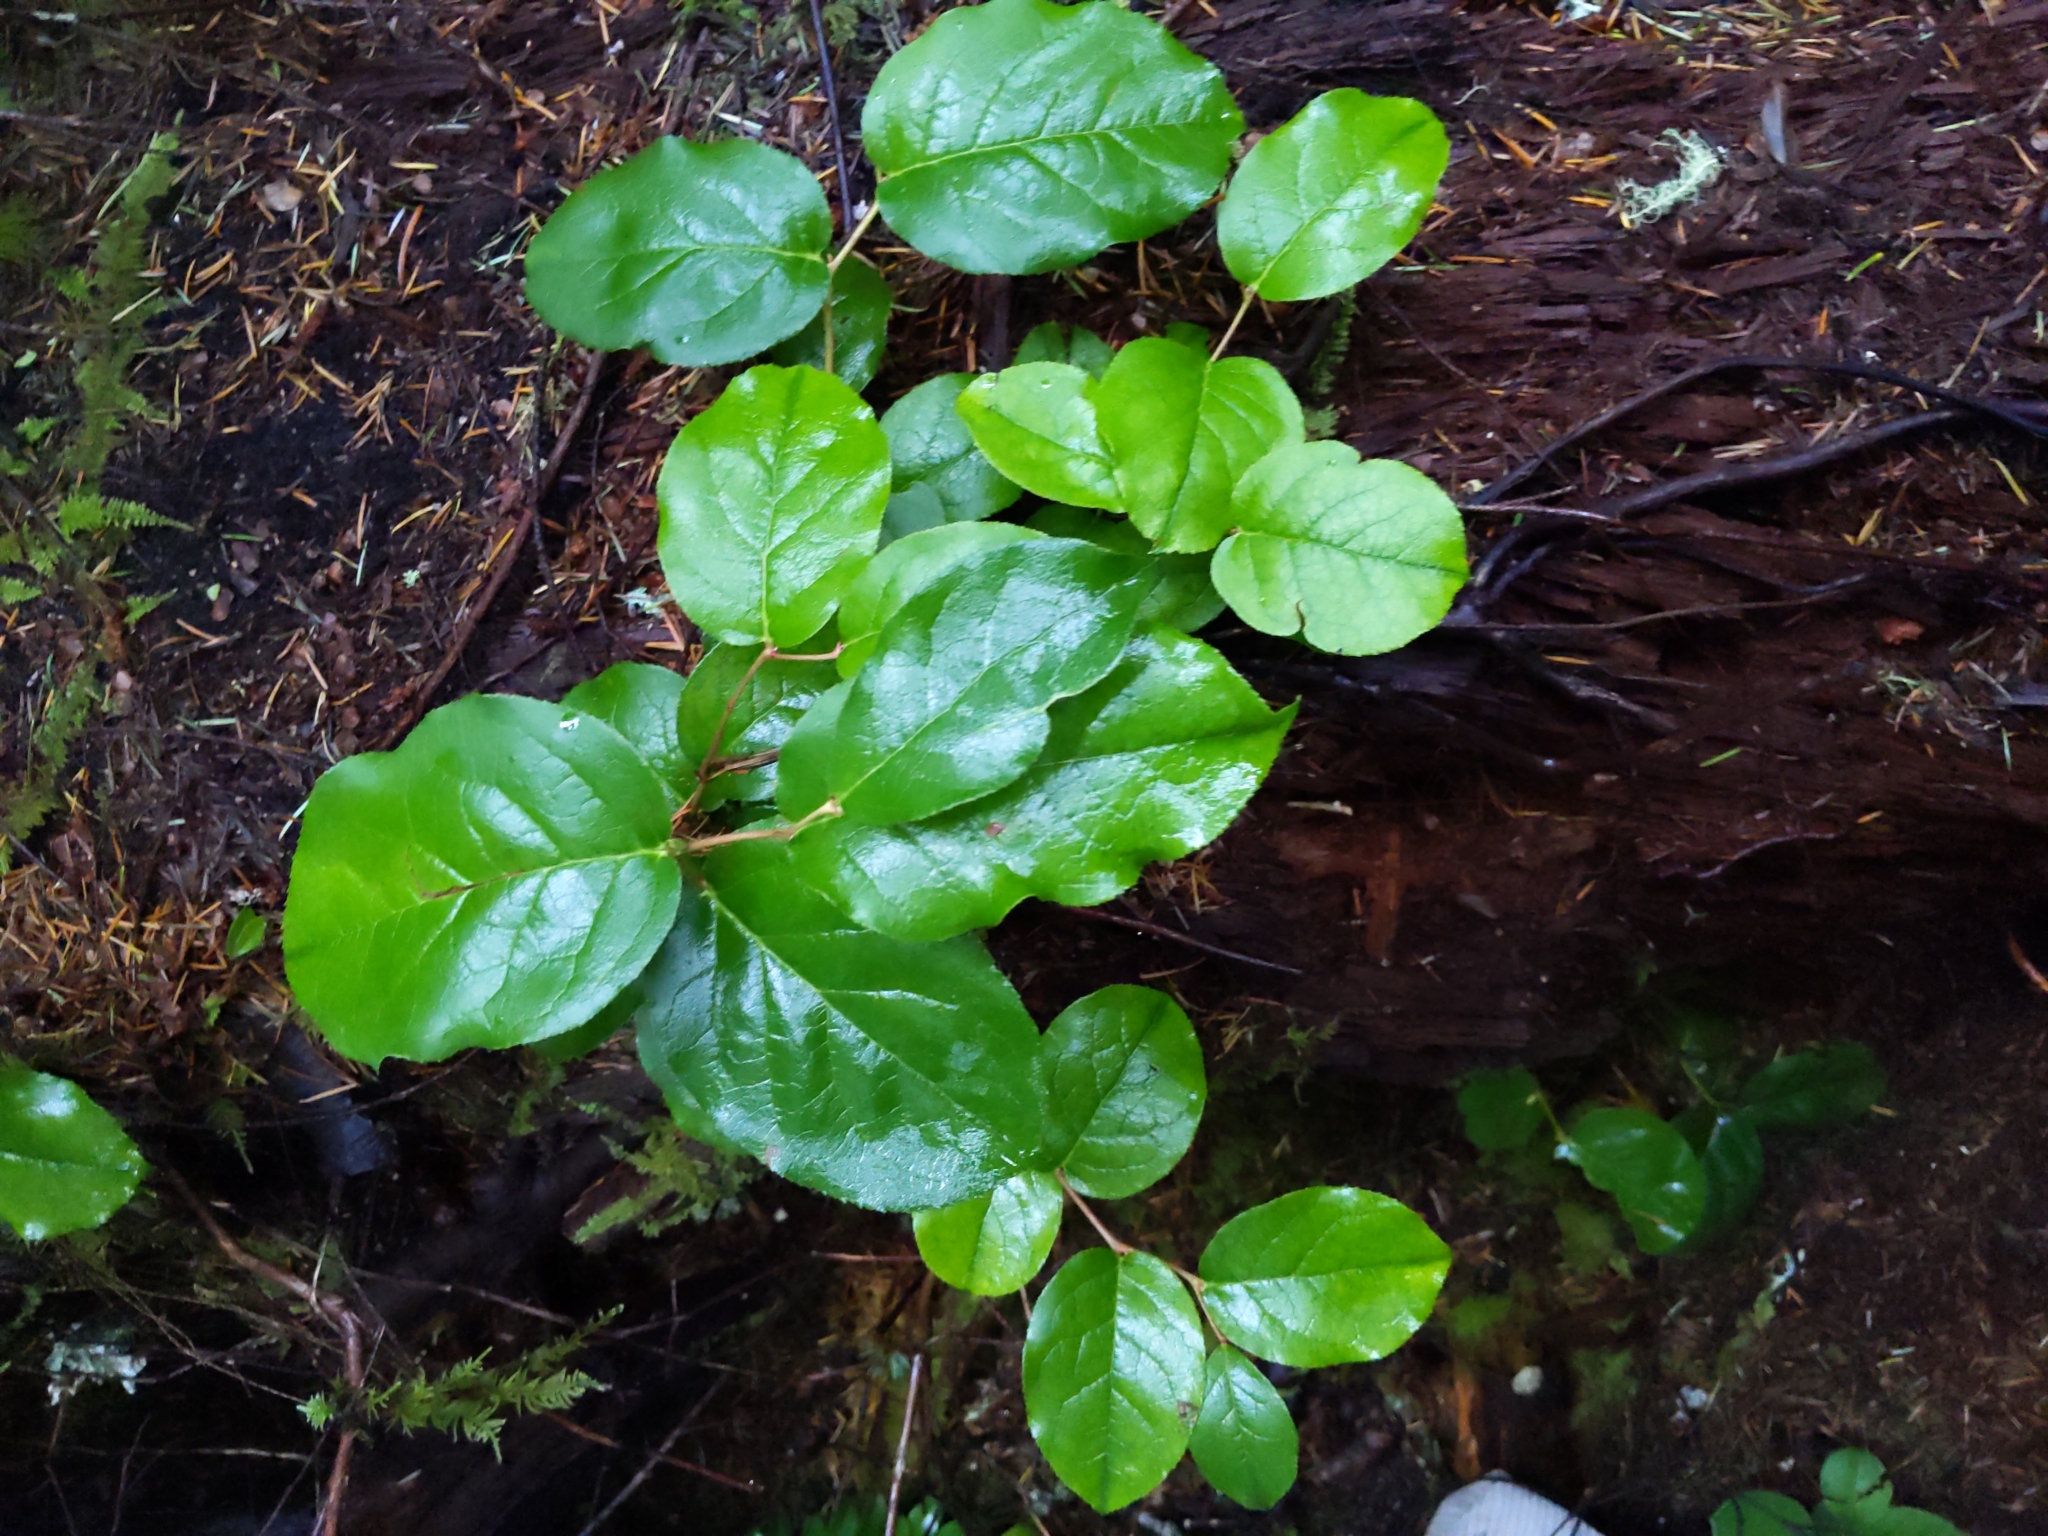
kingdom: Plantae
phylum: Tracheophyta
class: Magnoliopsida
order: Ericales
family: Ericaceae
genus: Gaultheria
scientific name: Gaultheria shallon
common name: Shallon
